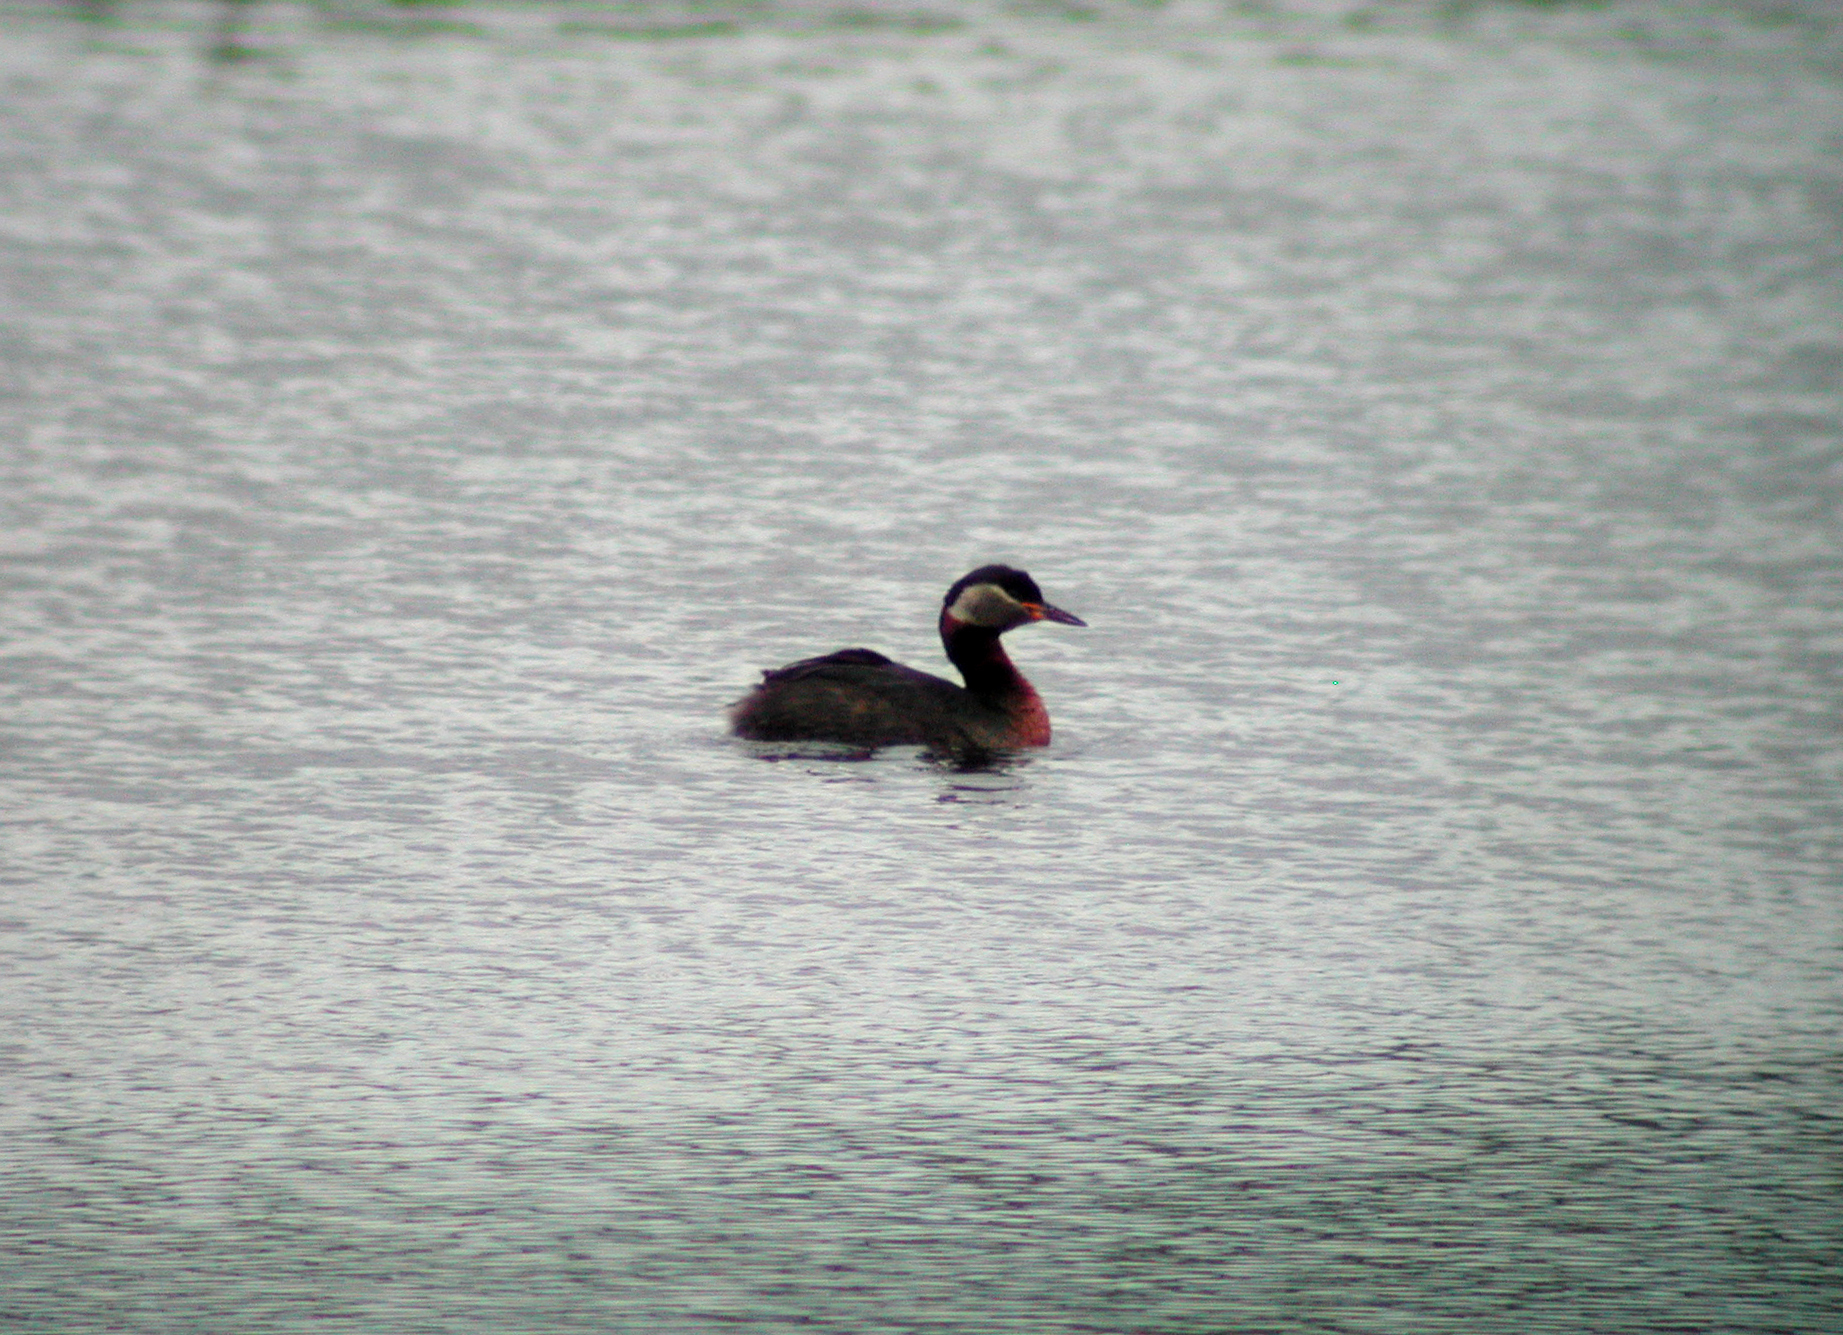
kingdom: Animalia
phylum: Chordata
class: Aves
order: Podicipediformes
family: Podicipedidae
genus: Podiceps
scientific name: Podiceps grisegena
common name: Red-necked grebe
